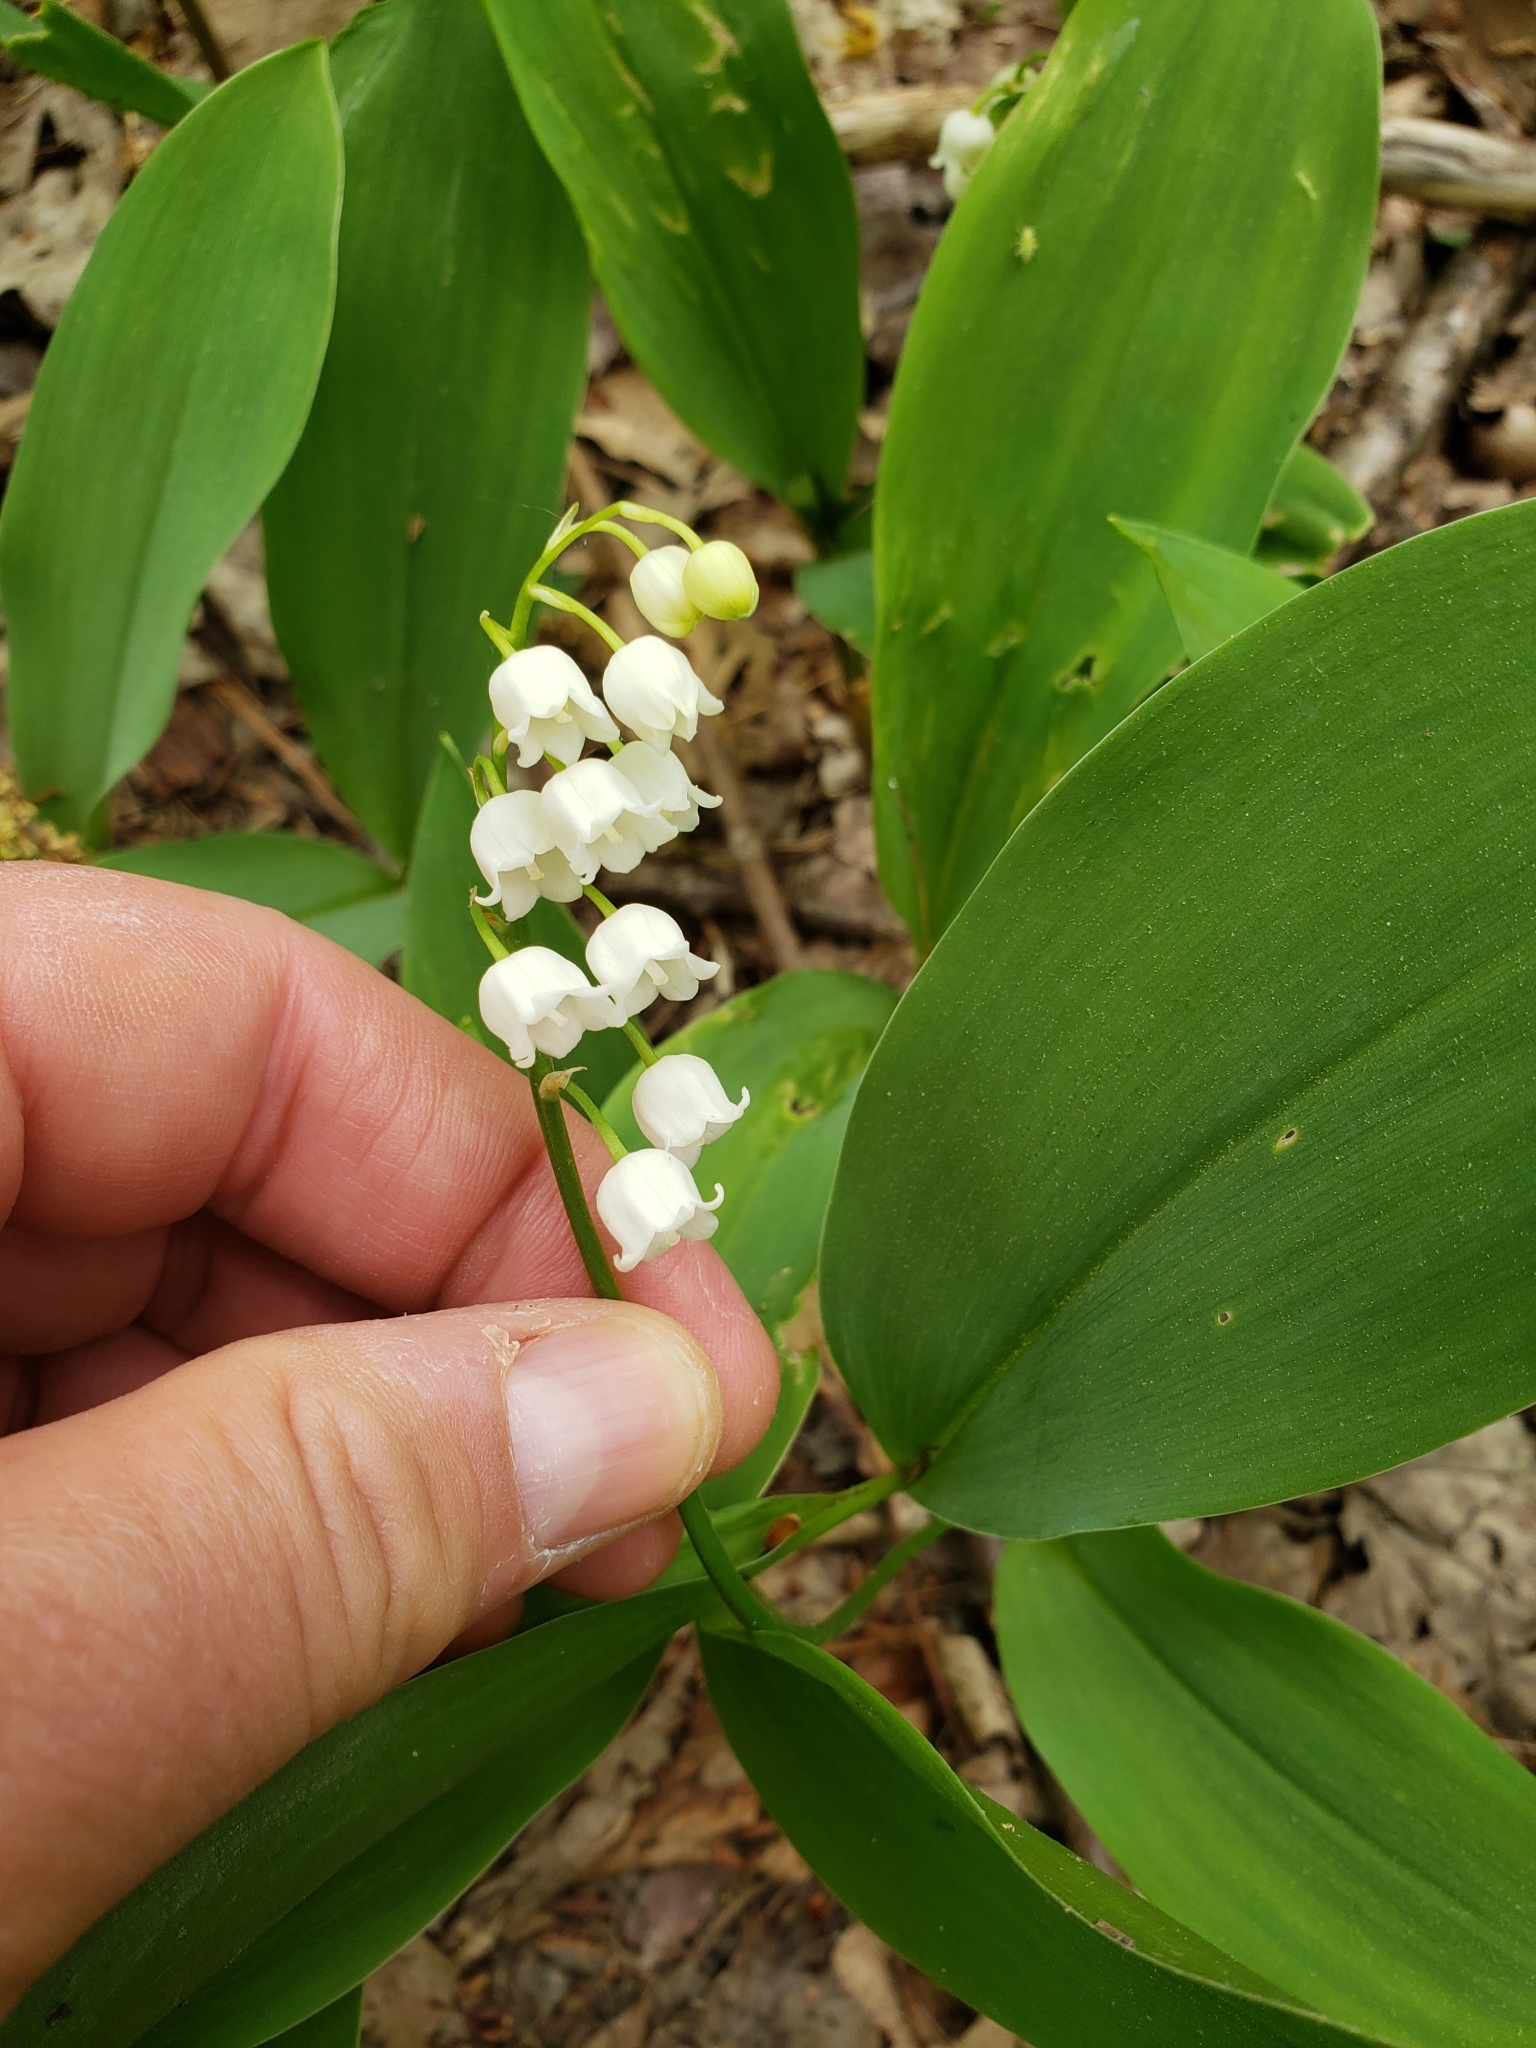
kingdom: Plantae
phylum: Tracheophyta
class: Liliopsida
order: Asparagales
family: Asparagaceae
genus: Convallaria
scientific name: Convallaria majalis
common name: Lily-of-the-valley
